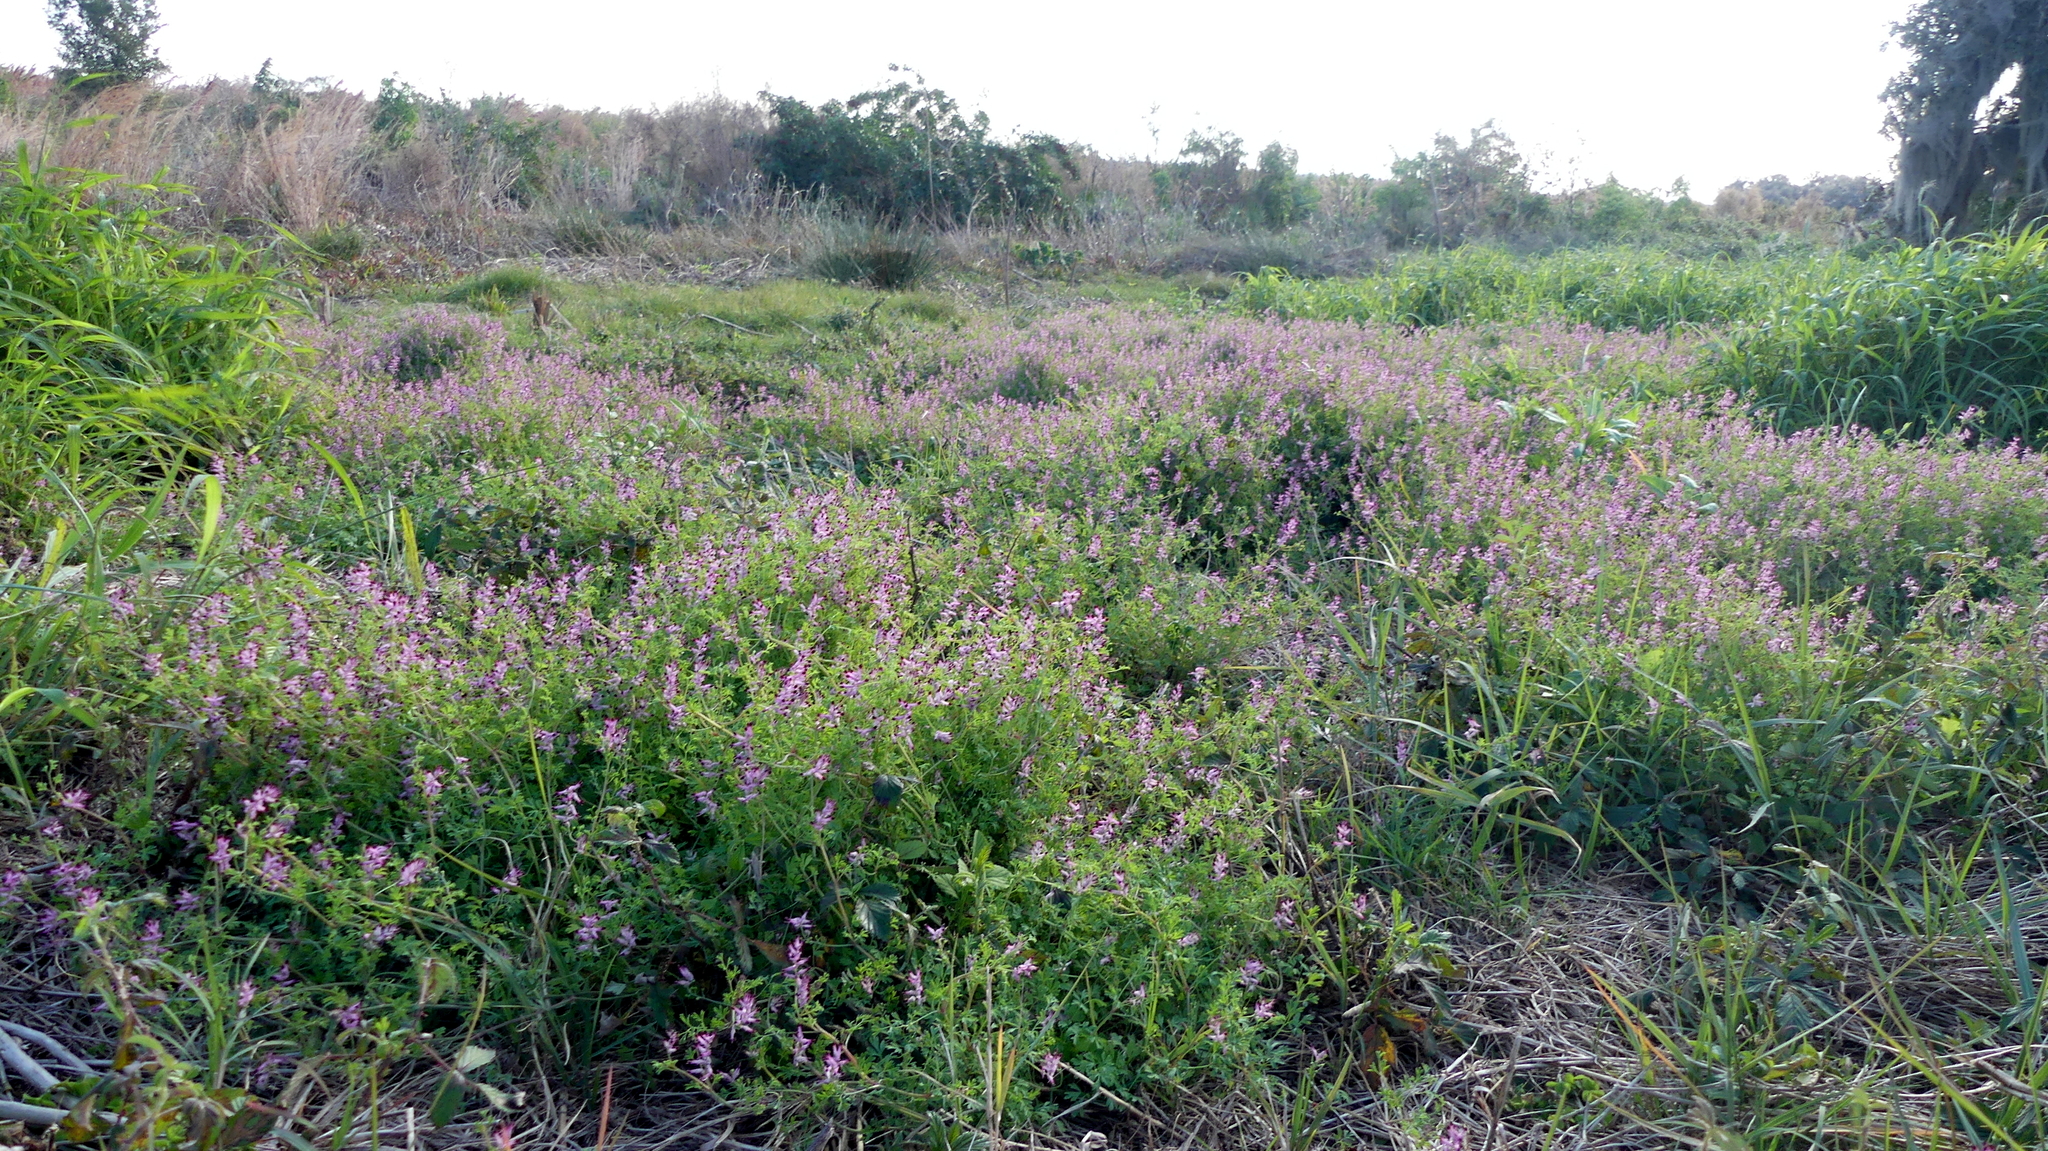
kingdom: Plantae
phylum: Tracheophyta
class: Magnoliopsida
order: Ranunculales
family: Papaveraceae
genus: Fumaria
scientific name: Fumaria muralis
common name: Common ramping-fumitory
